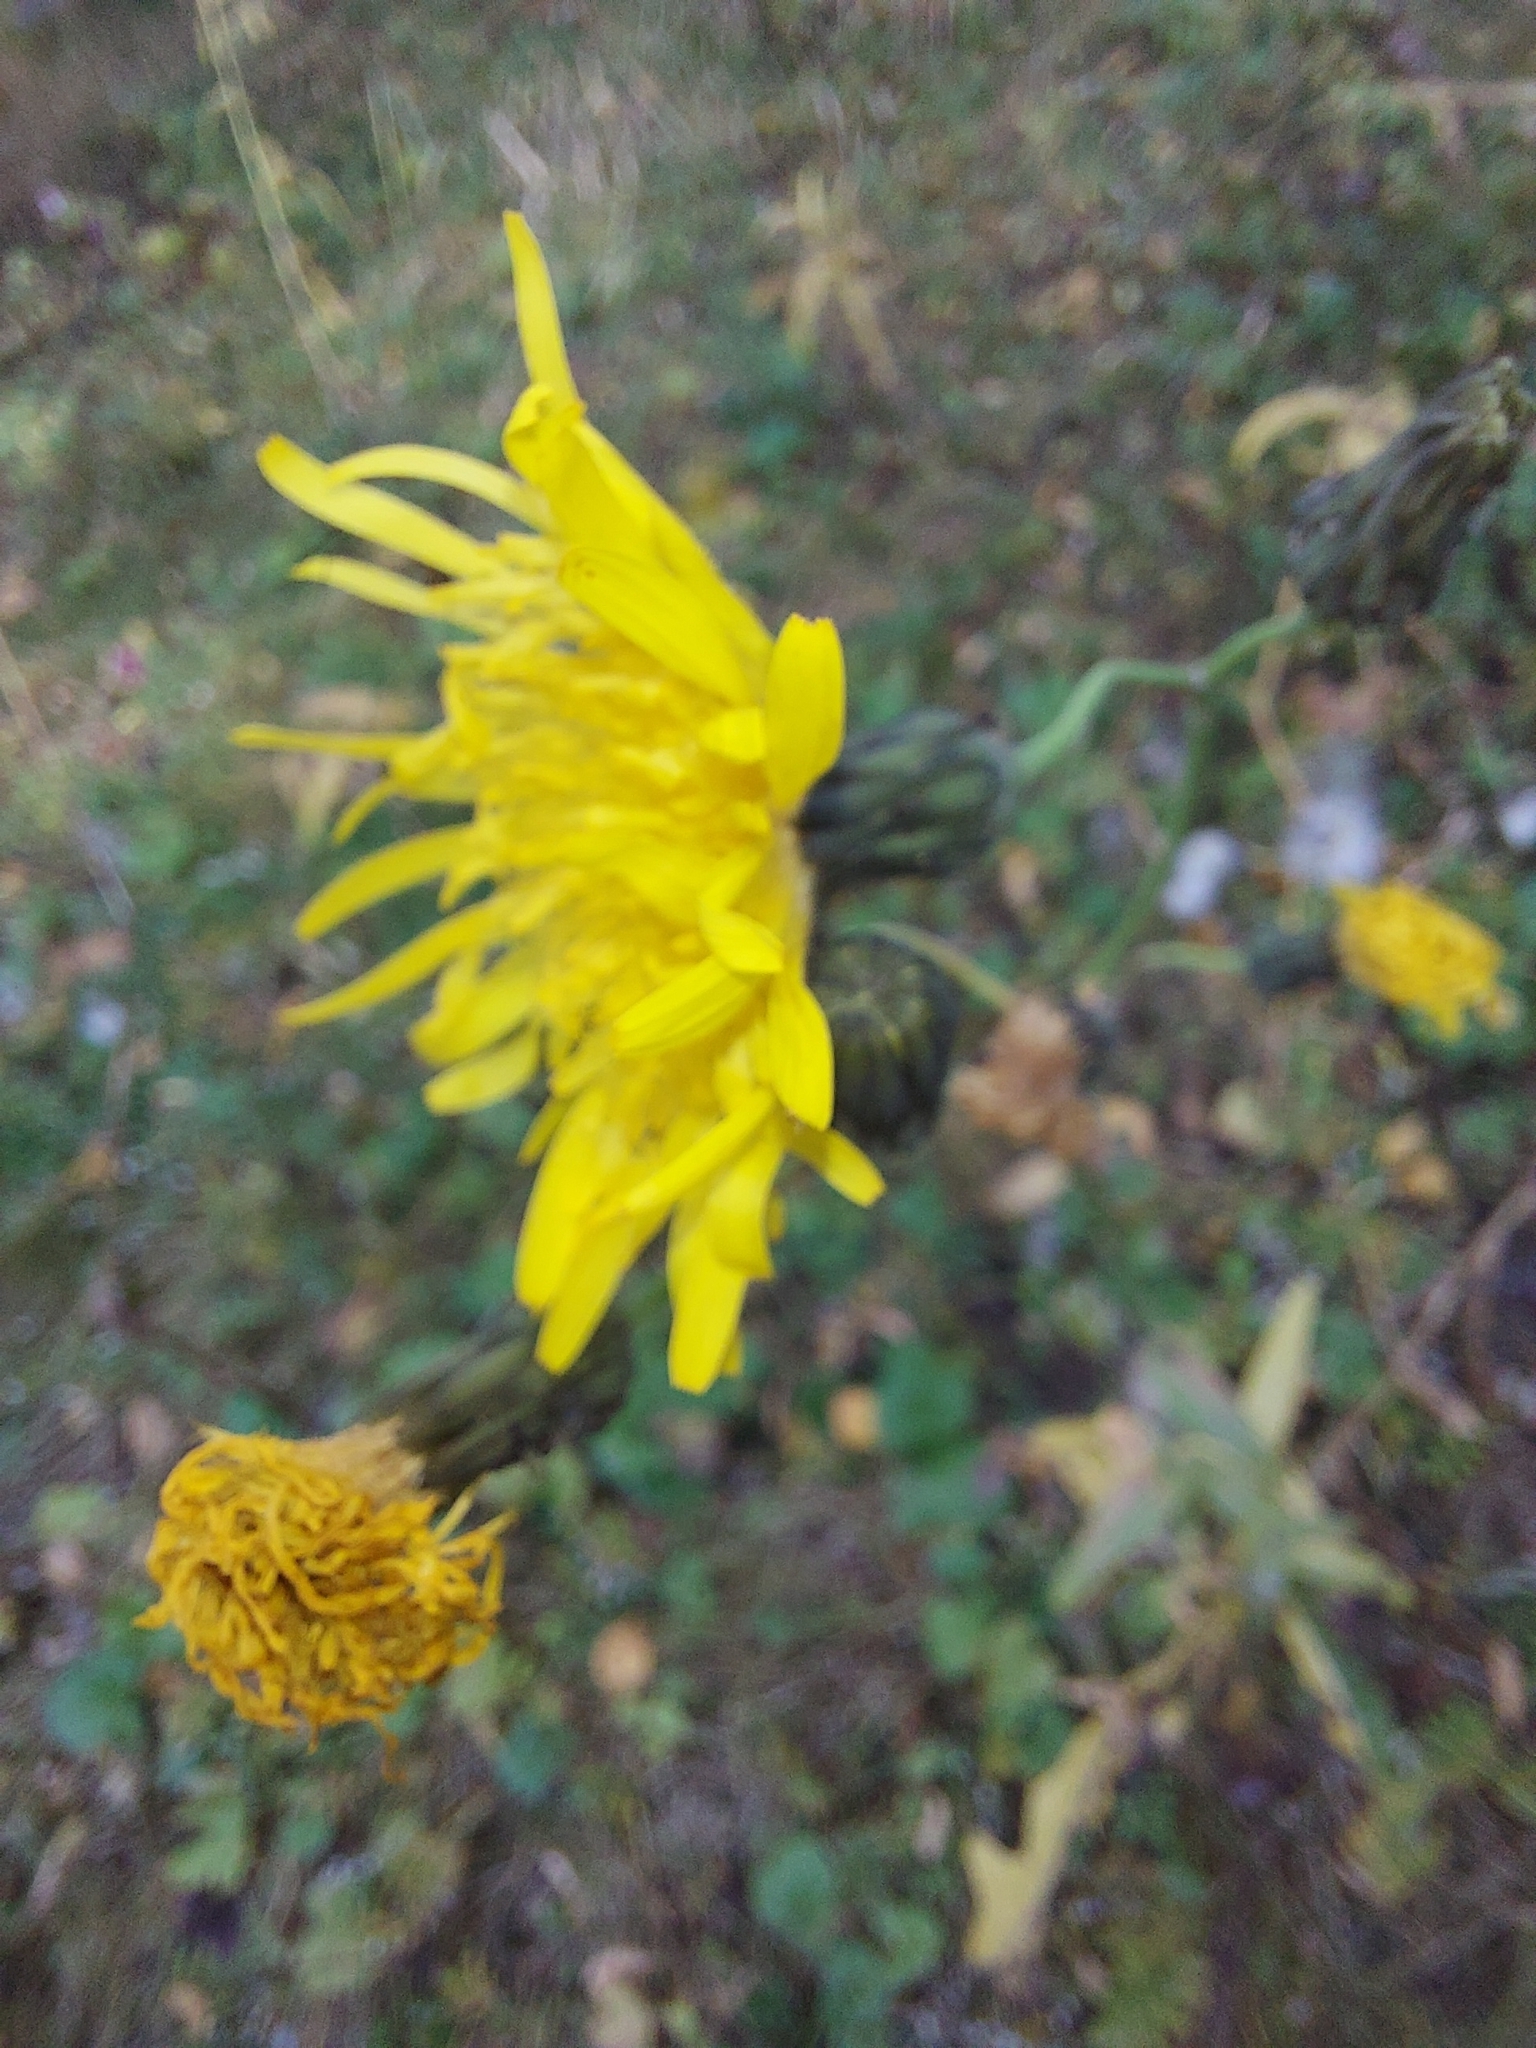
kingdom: Plantae
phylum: Tracheophyta
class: Magnoliopsida
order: Asterales
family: Asteraceae
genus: Sonchus
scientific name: Sonchus arvensis
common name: Perennial sow-thistle
